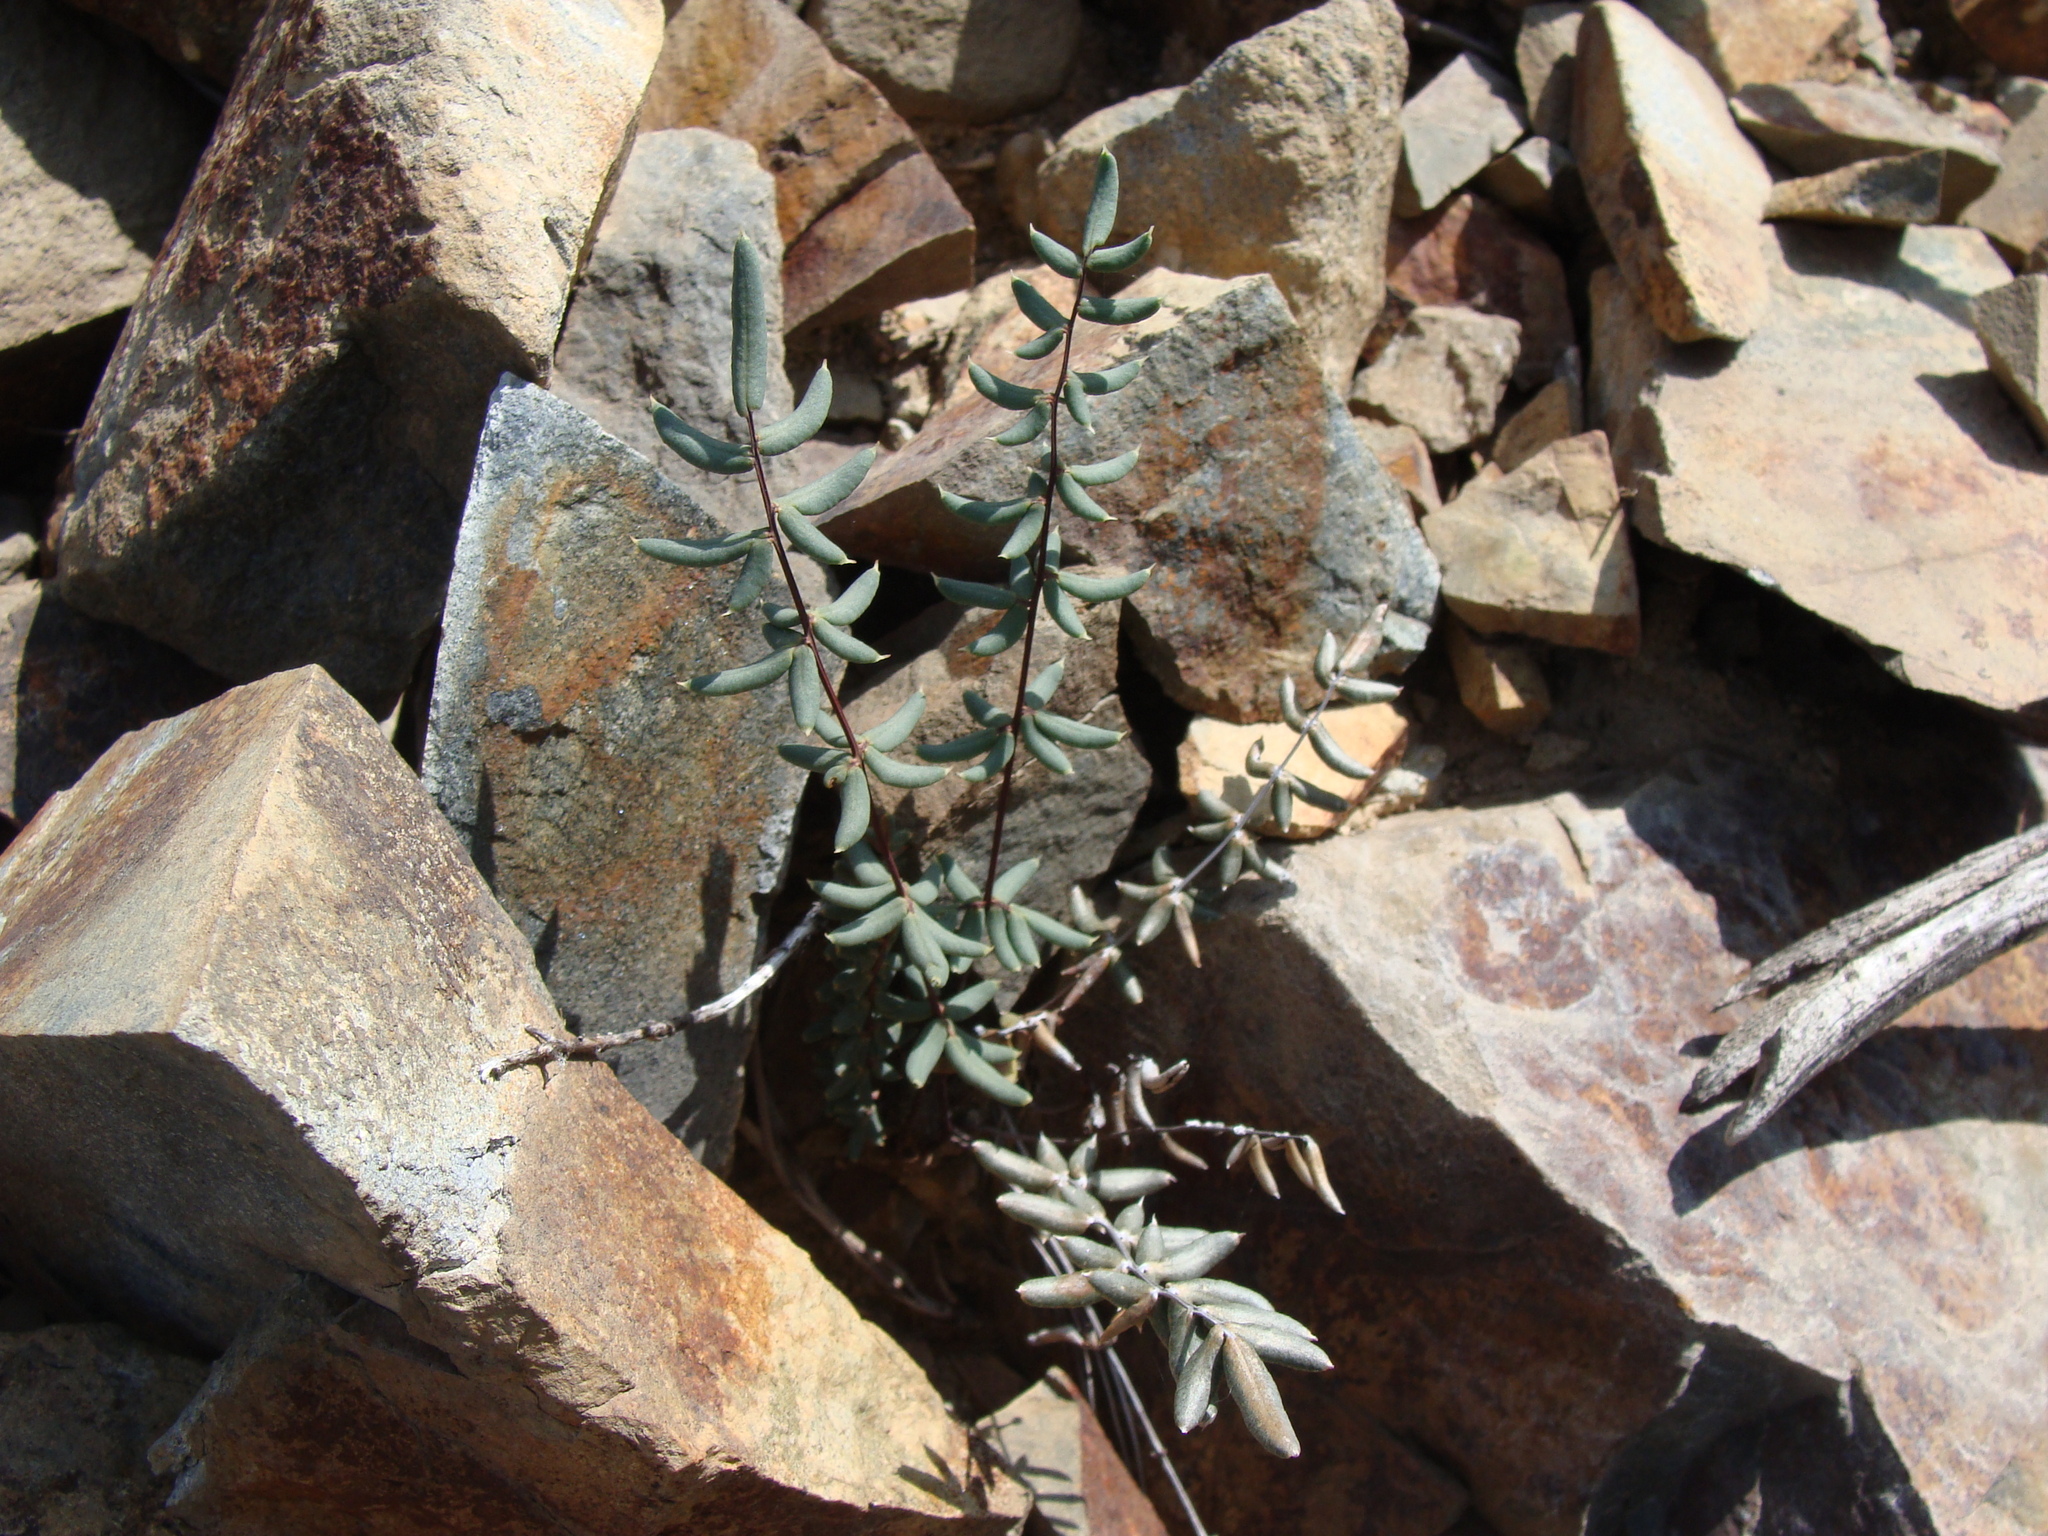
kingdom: Plantae
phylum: Tracheophyta
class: Polypodiopsida
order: Polypodiales
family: Pteridaceae
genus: Pellaea
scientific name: Pellaea wrightiana
